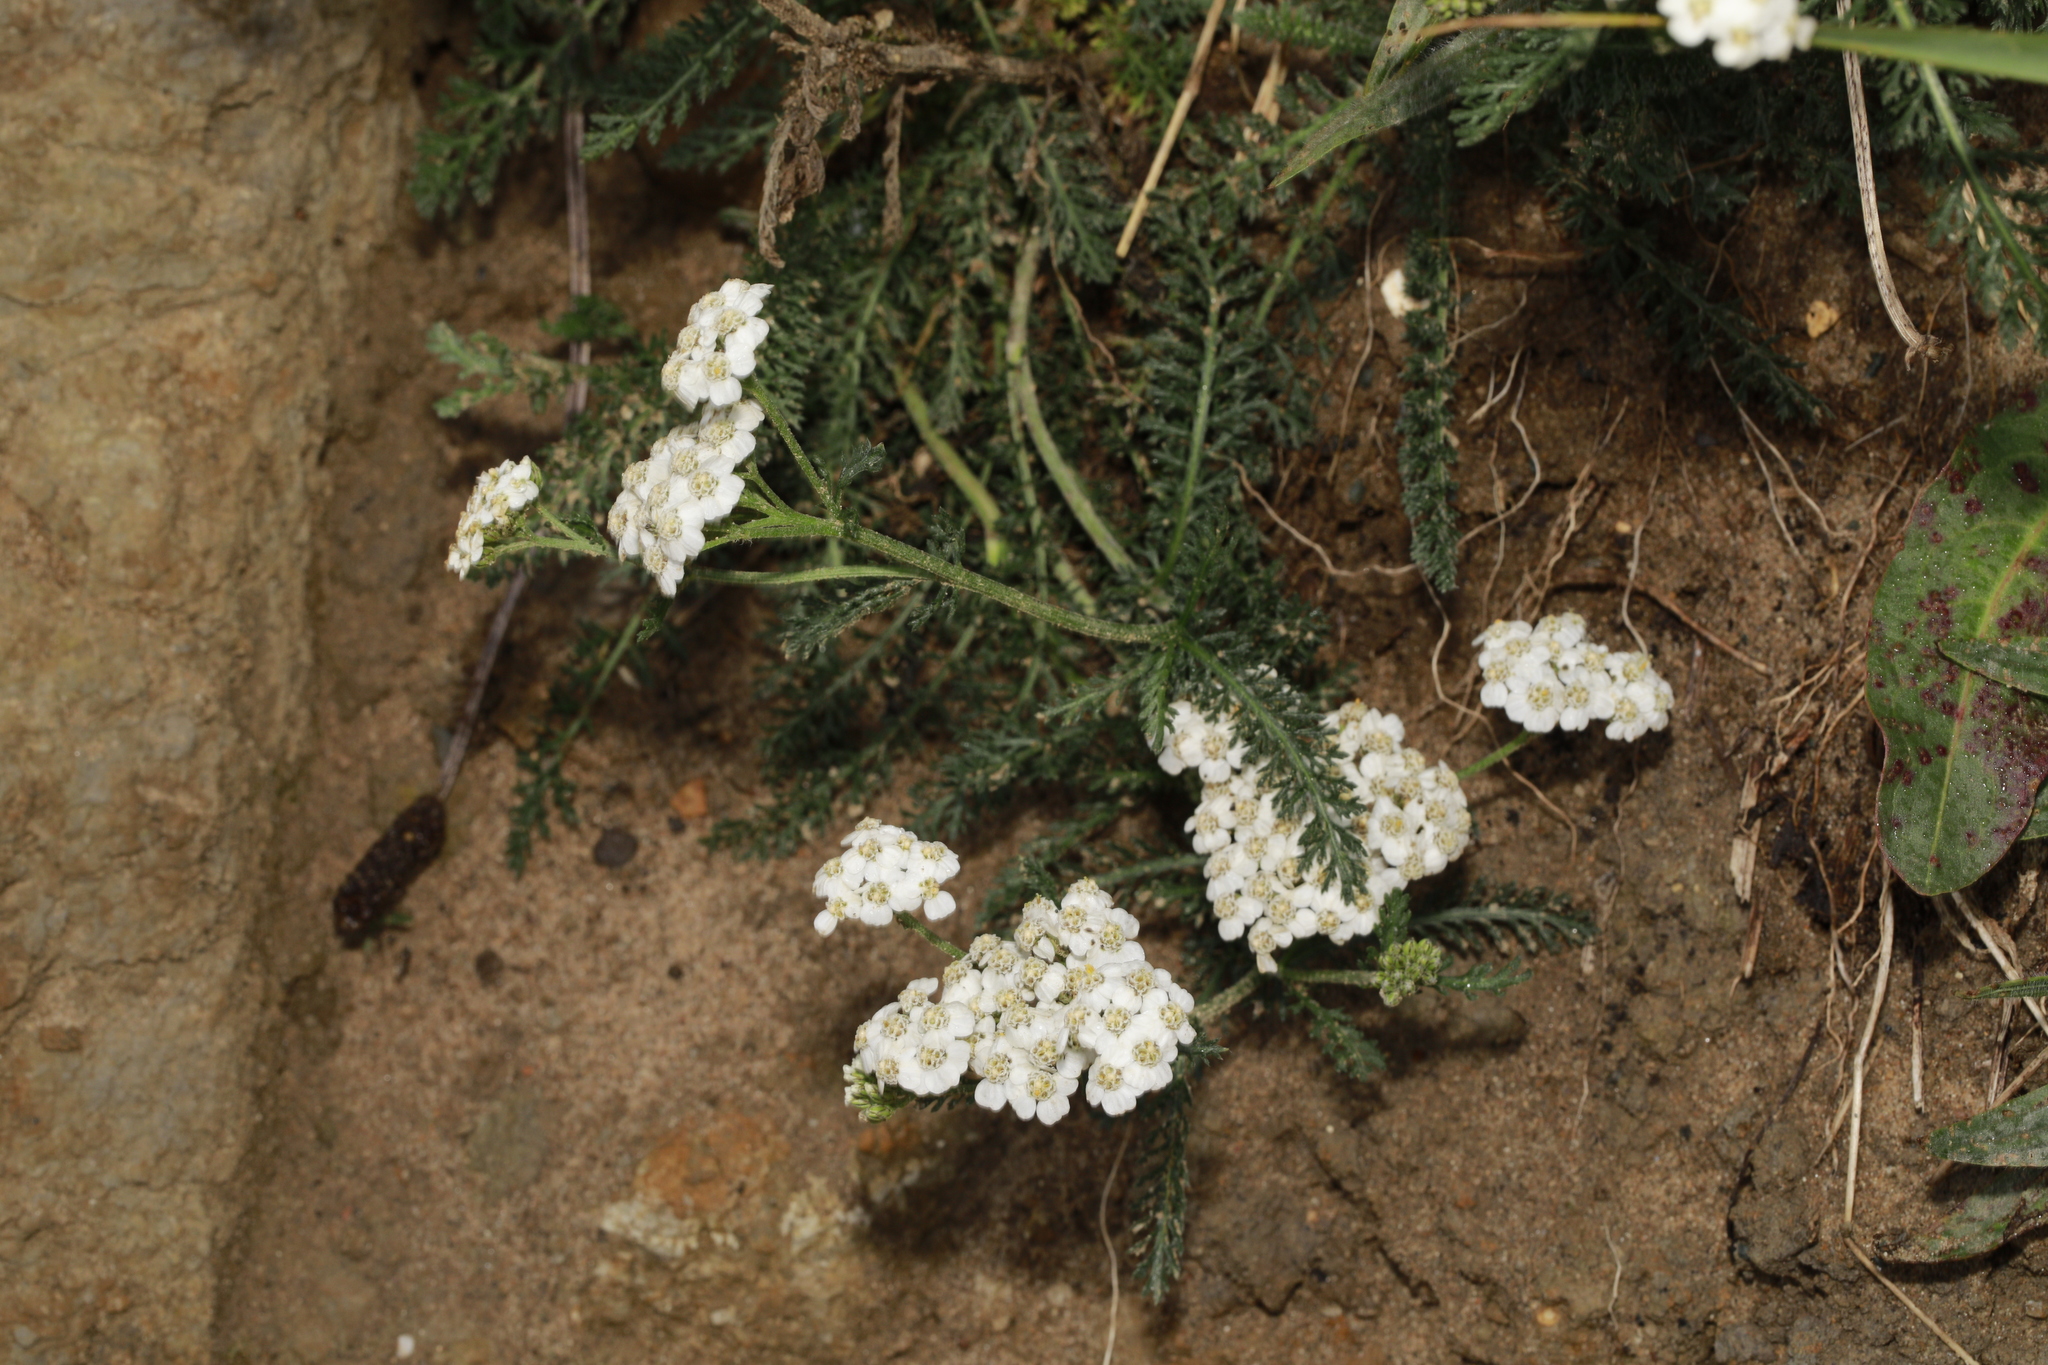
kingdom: Plantae
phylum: Tracheophyta
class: Magnoliopsida
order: Asterales
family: Asteraceae
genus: Achillea
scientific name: Achillea millefolium
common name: Yarrow
